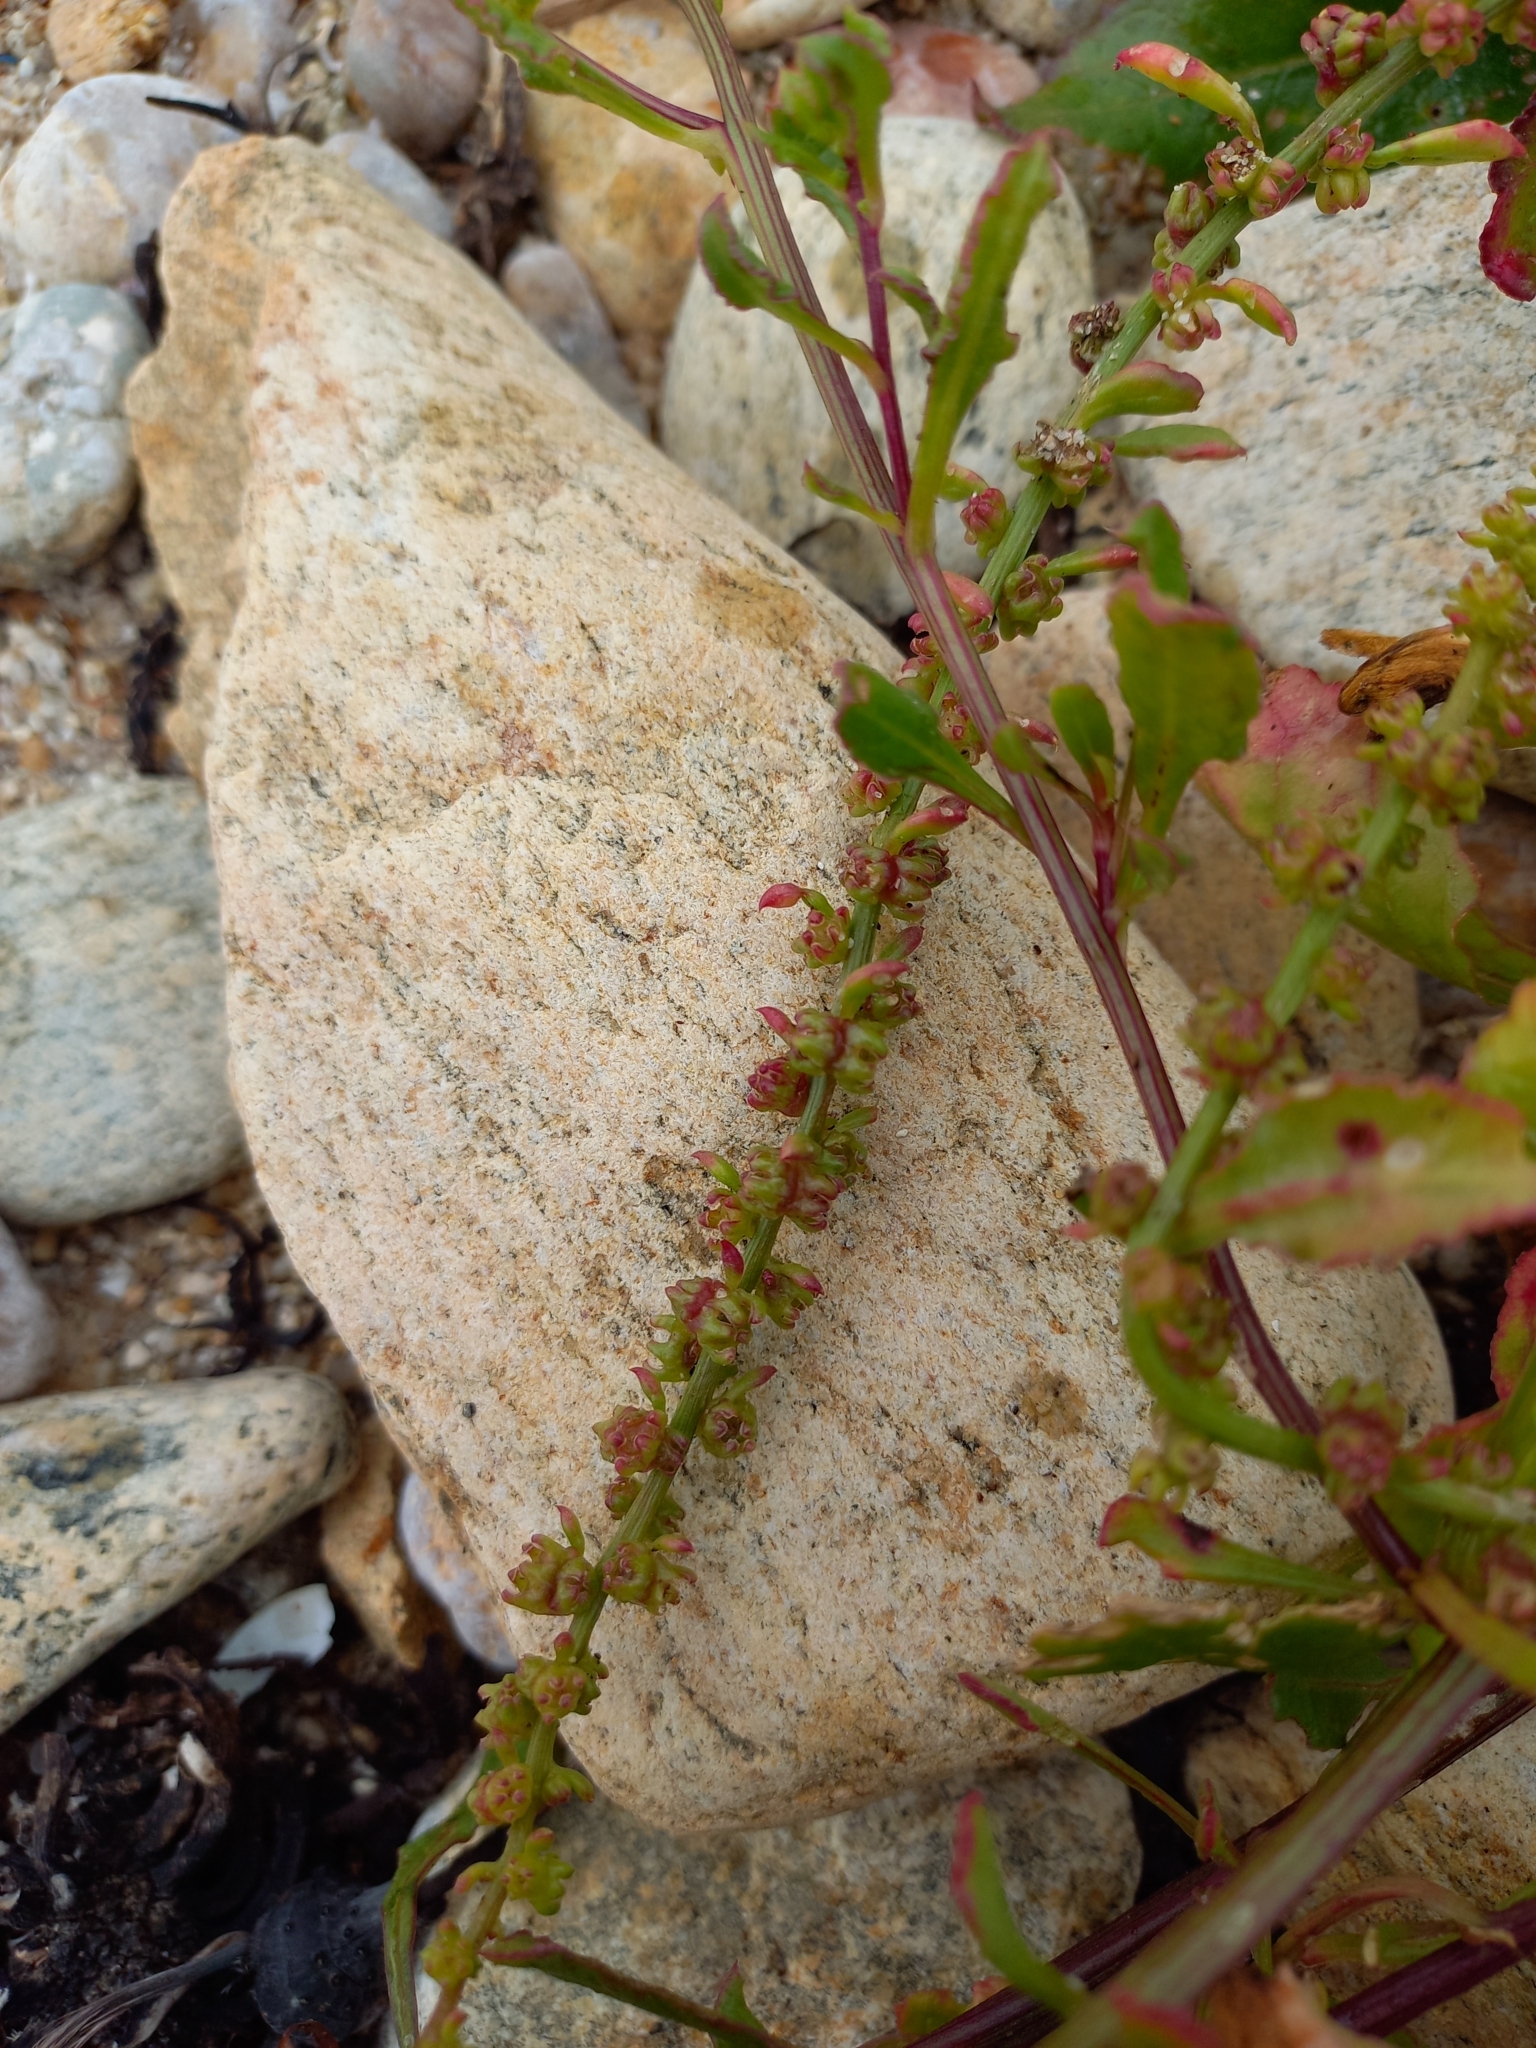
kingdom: Plantae
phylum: Tracheophyta
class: Magnoliopsida
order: Caryophyllales
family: Amaranthaceae
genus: Beta
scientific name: Beta vulgaris
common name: Beet
